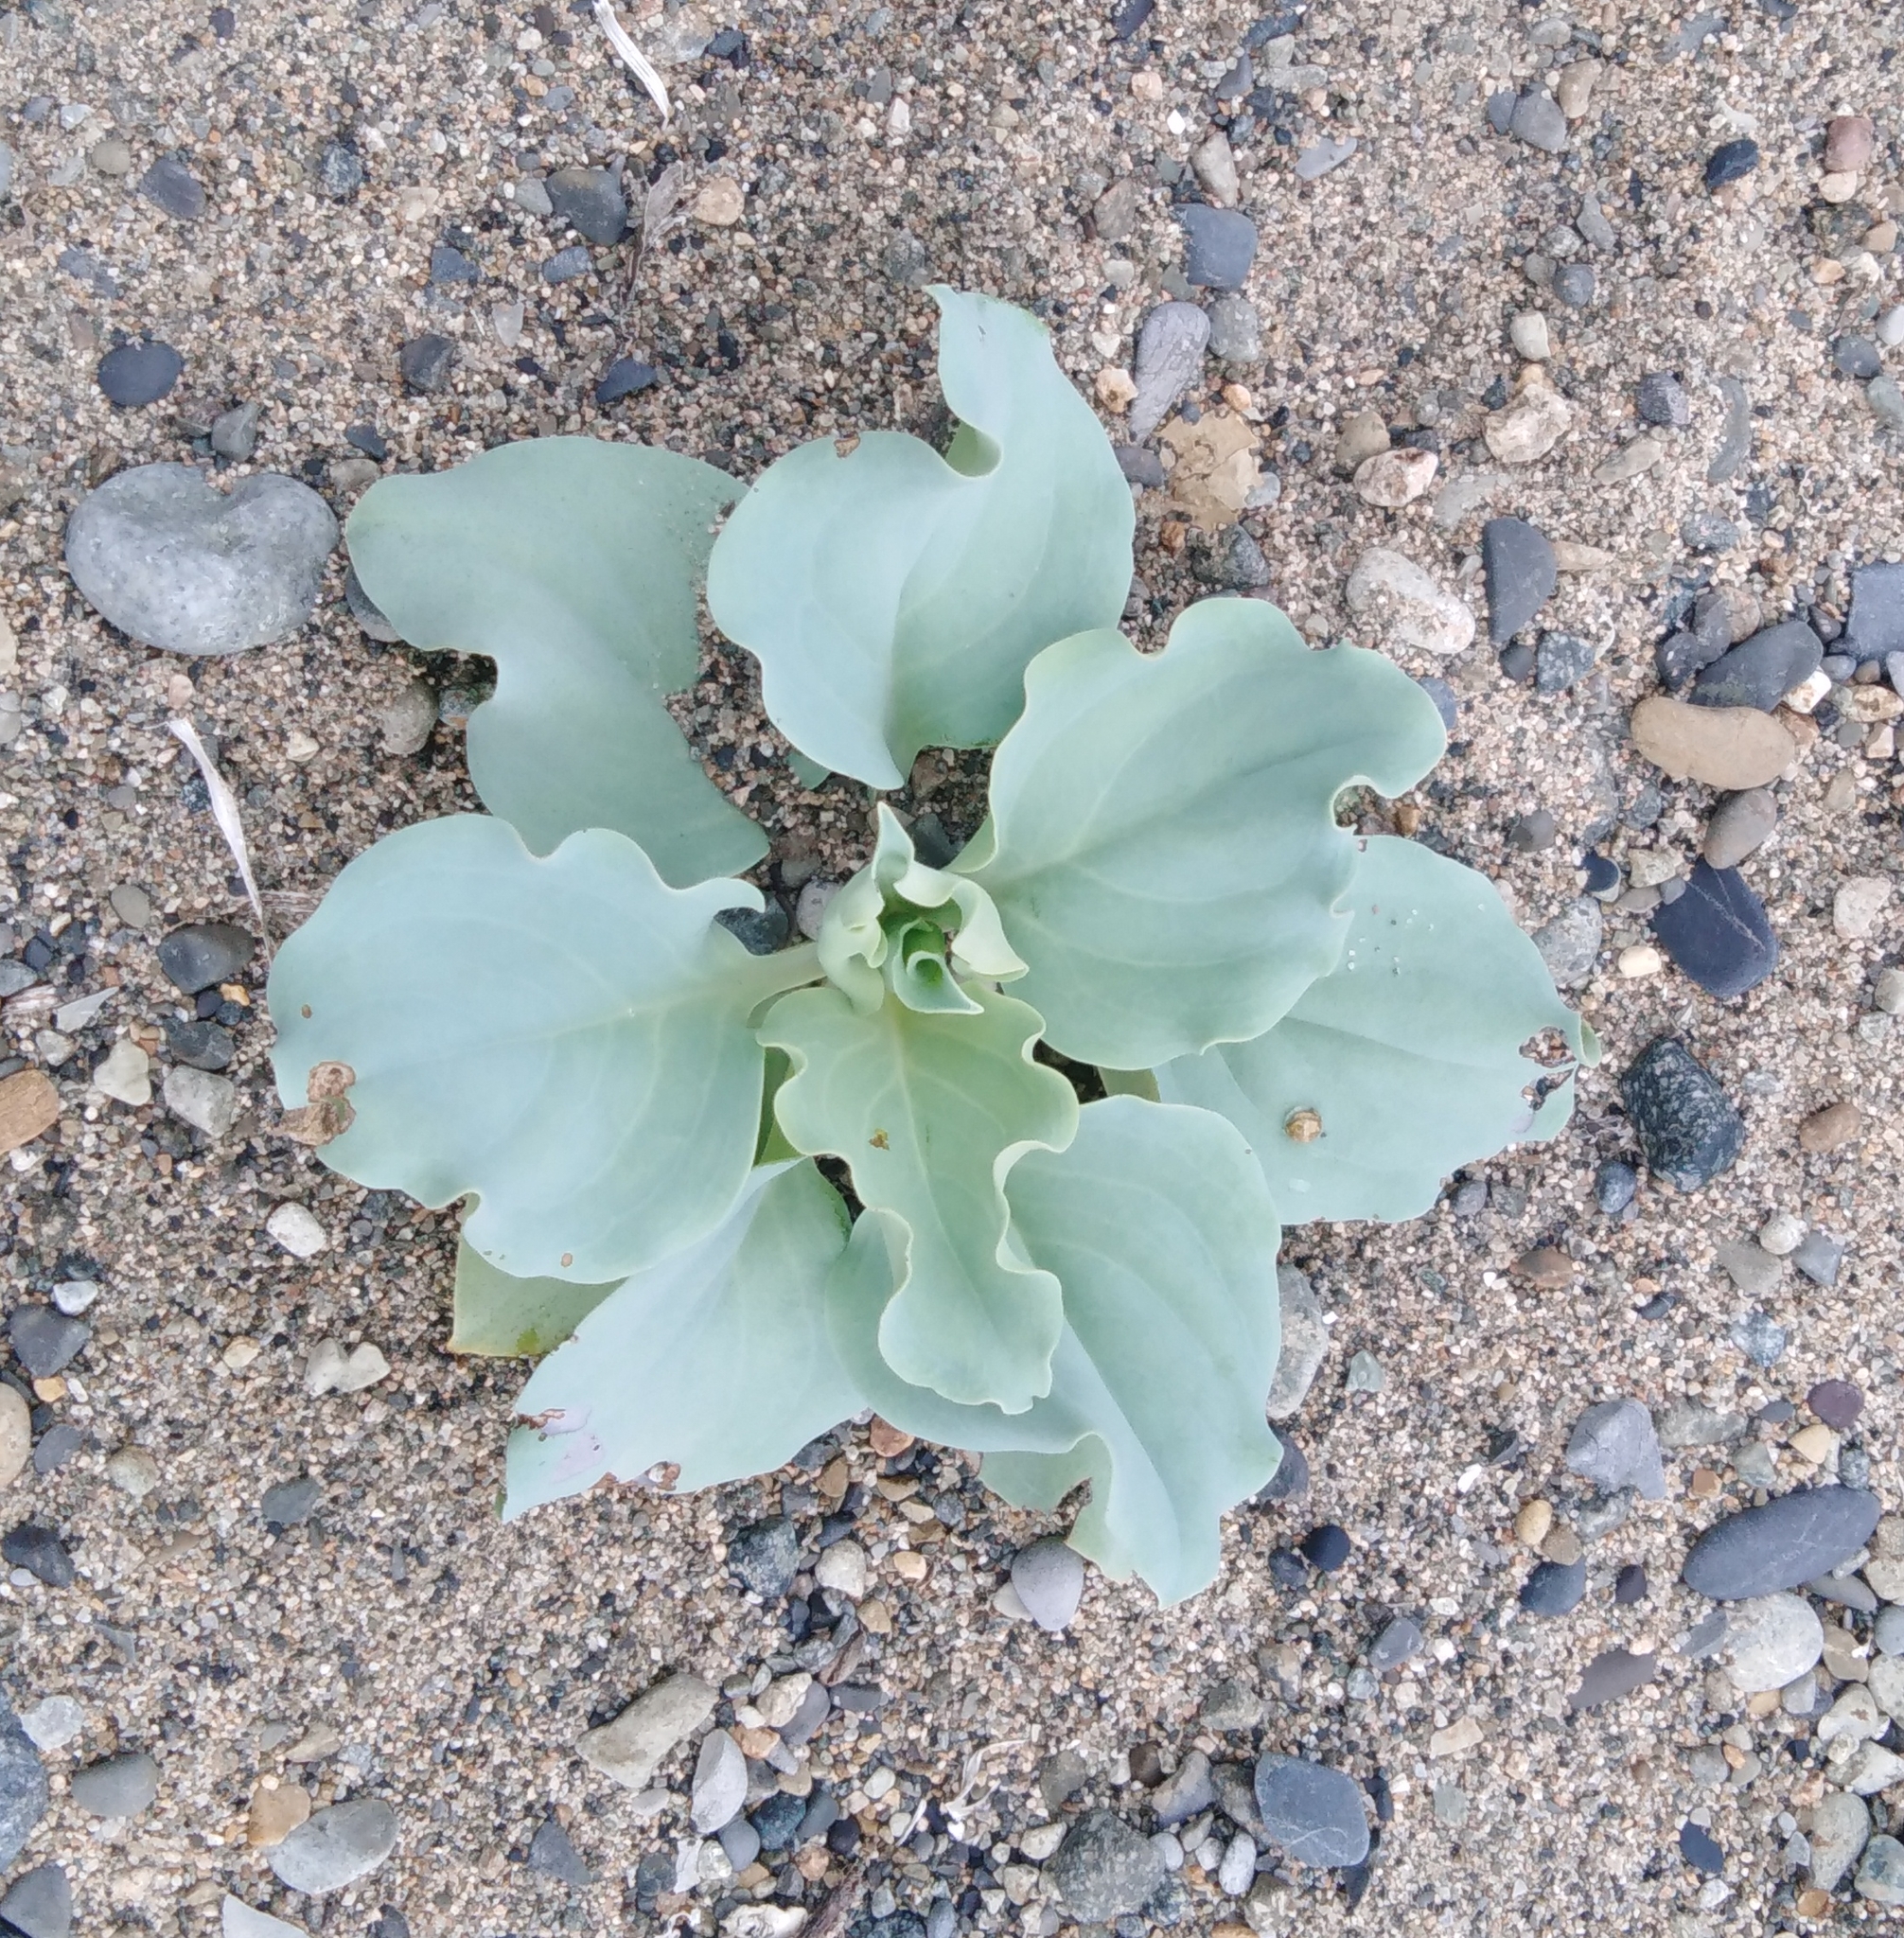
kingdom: Plantae
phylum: Tracheophyta
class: Magnoliopsida
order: Boraginales
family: Boraginaceae
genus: Mertensia
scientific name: Mertensia simplicissima
